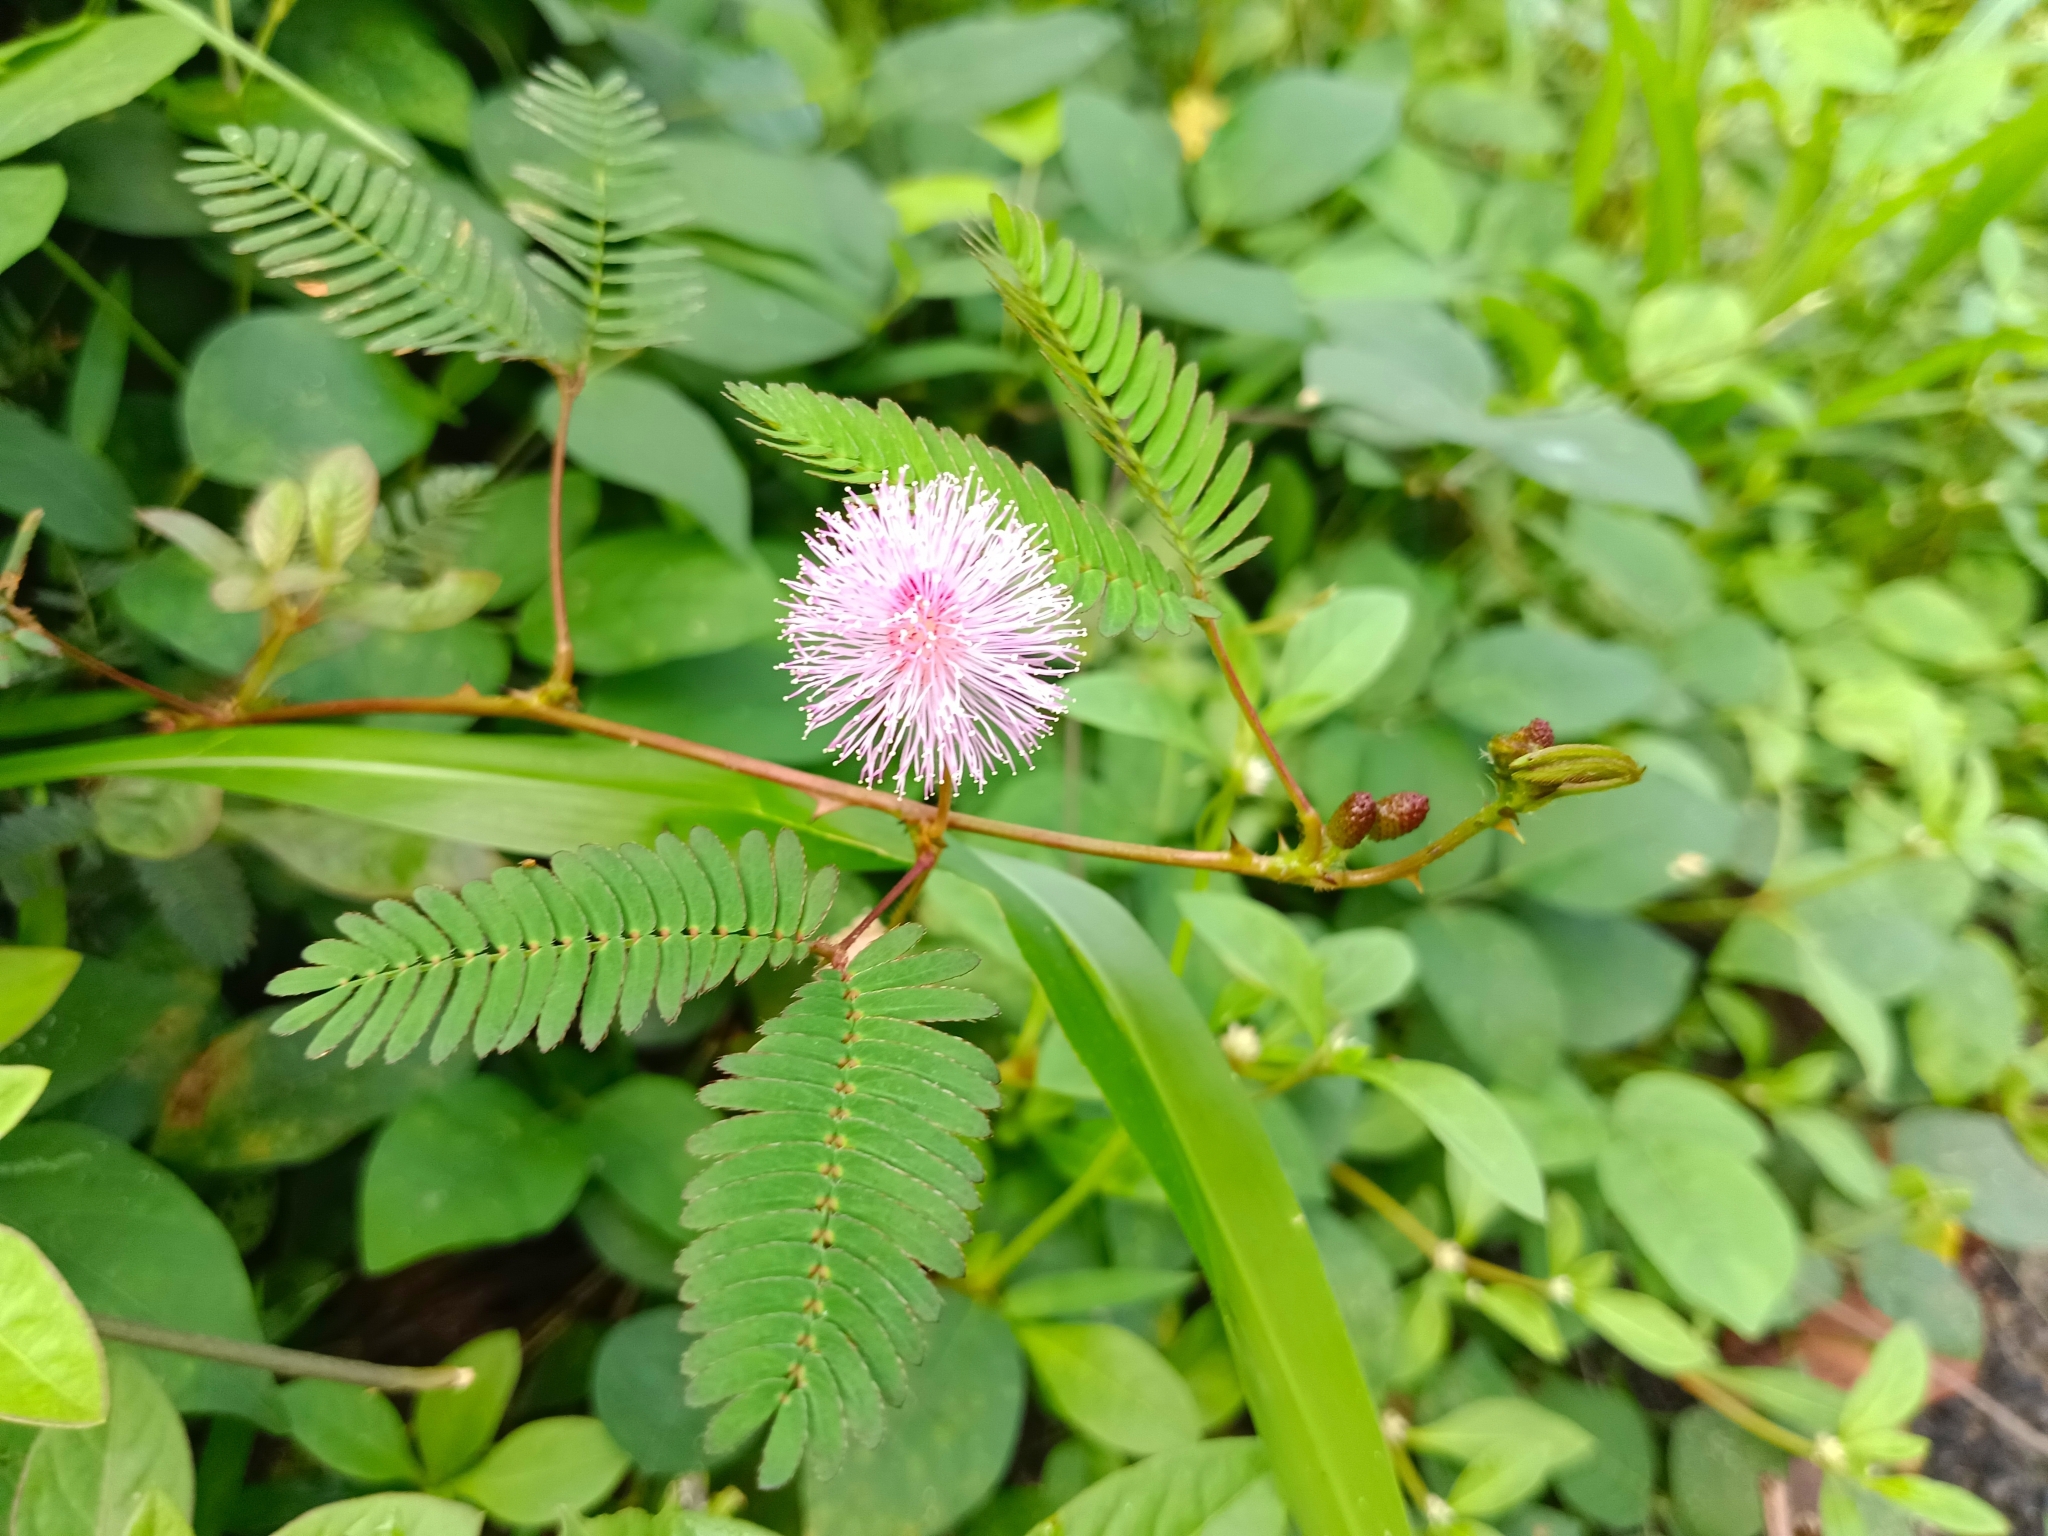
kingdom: Plantae
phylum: Tracheophyta
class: Magnoliopsida
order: Fabales
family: Fabaceae
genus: Mimosa
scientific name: Mimosa pudica
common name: Sensitive plant
